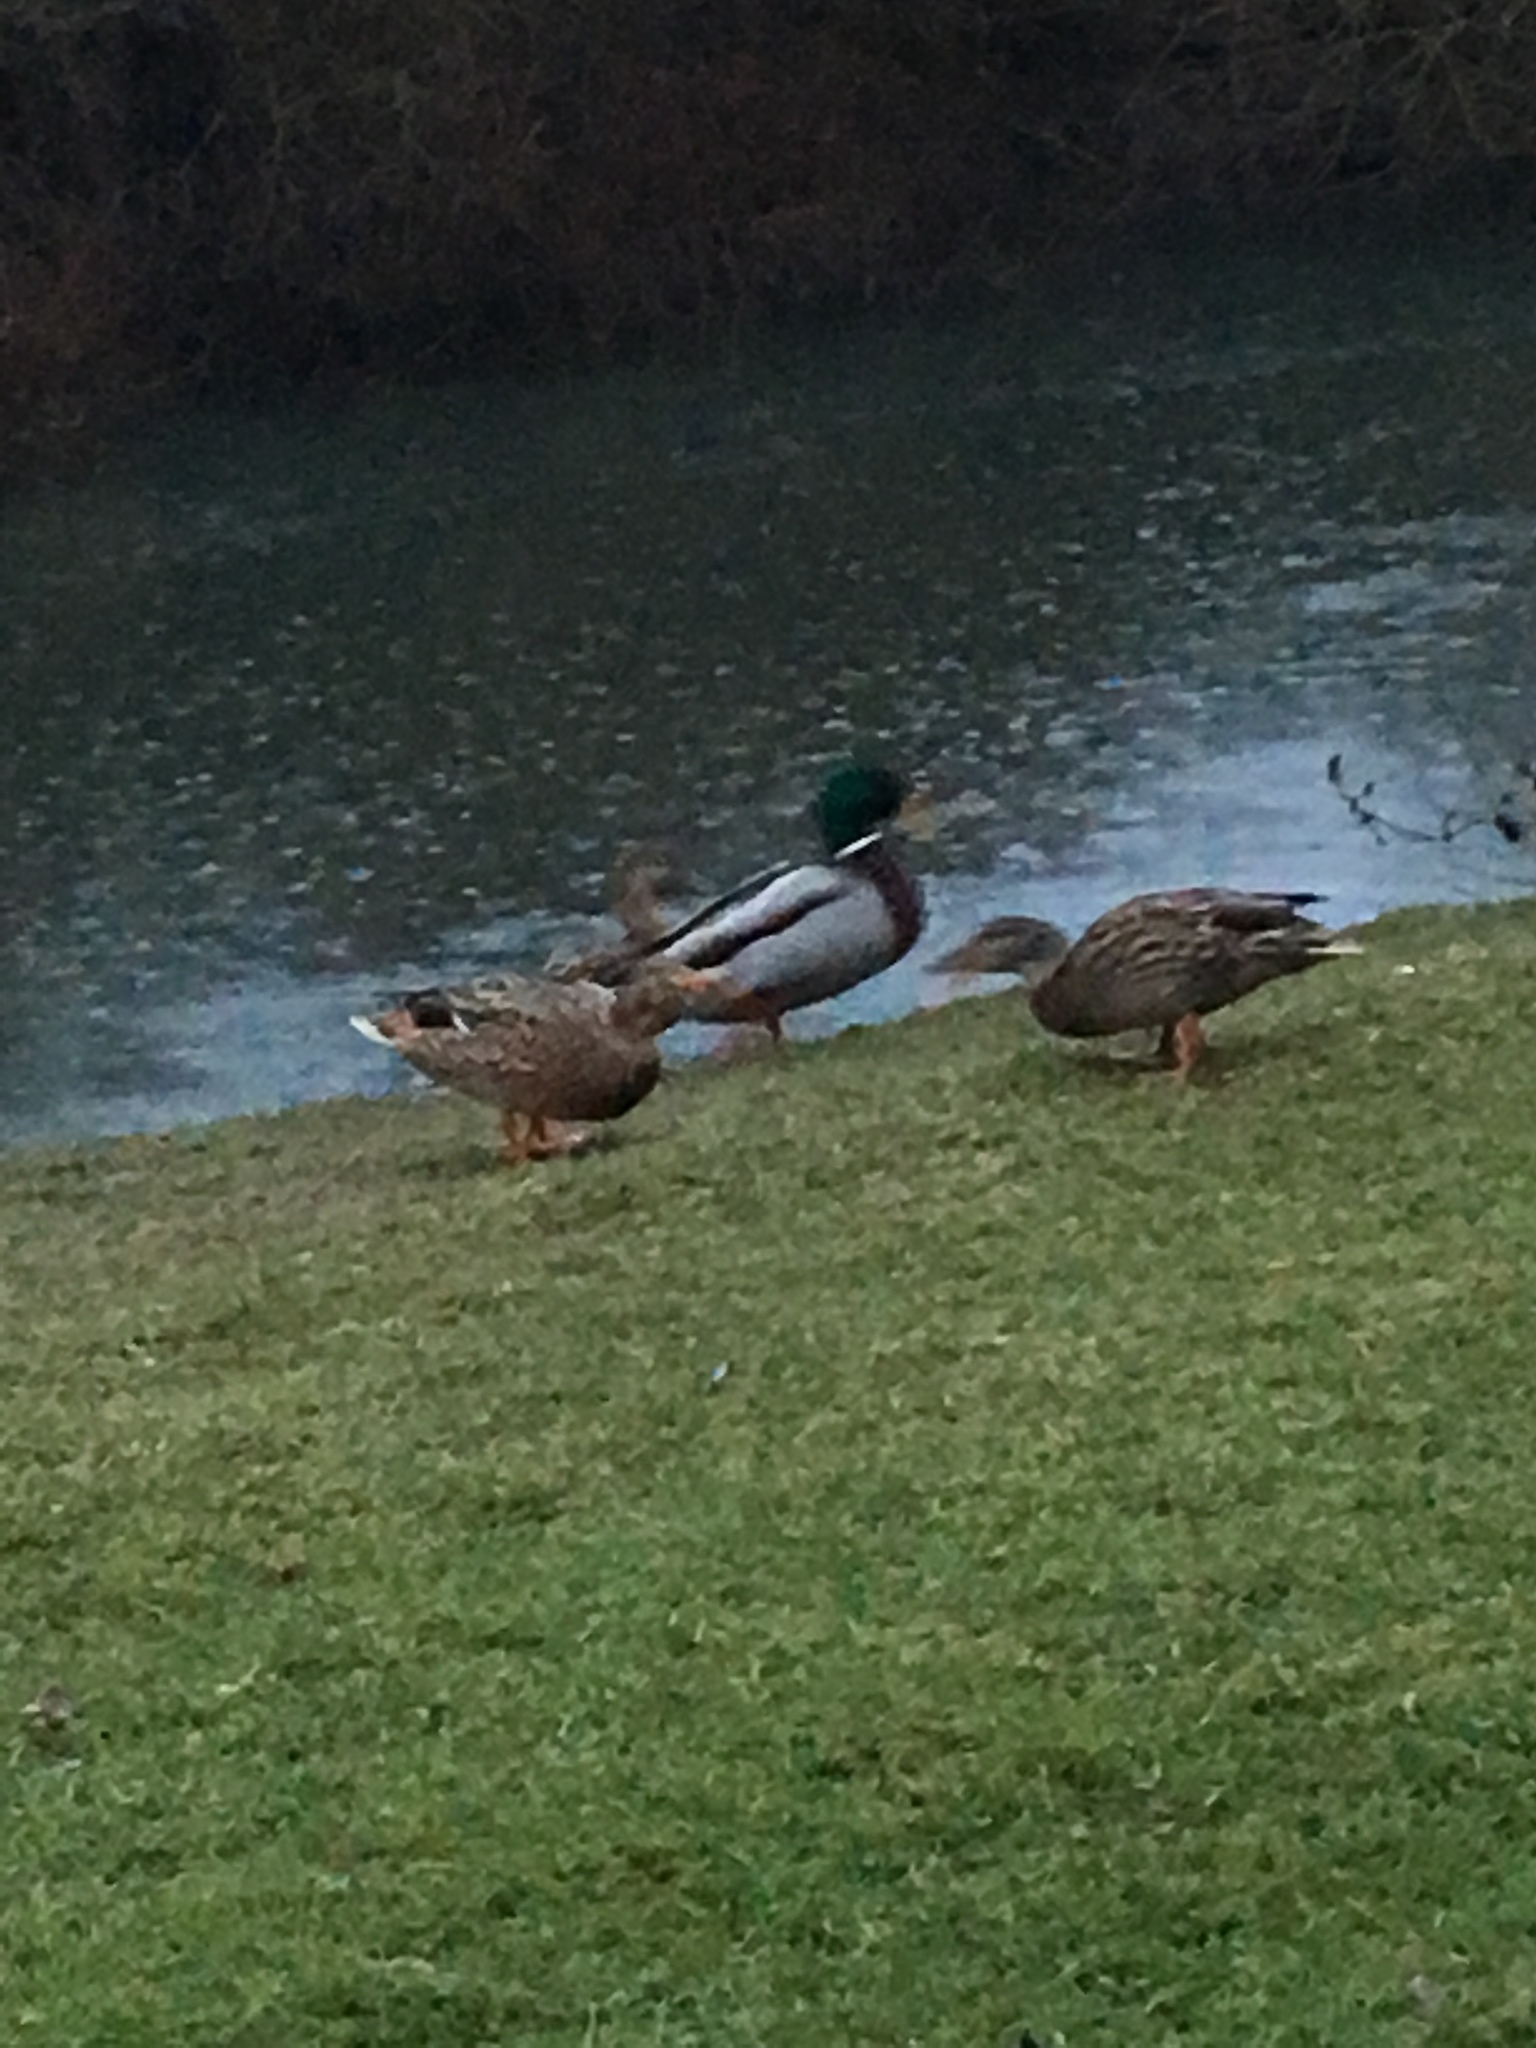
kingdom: Animalia
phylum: Chordata
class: Aves
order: Anseriformes
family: Anatidae
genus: Anas
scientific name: Anas platyrhynchos
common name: Mallard
